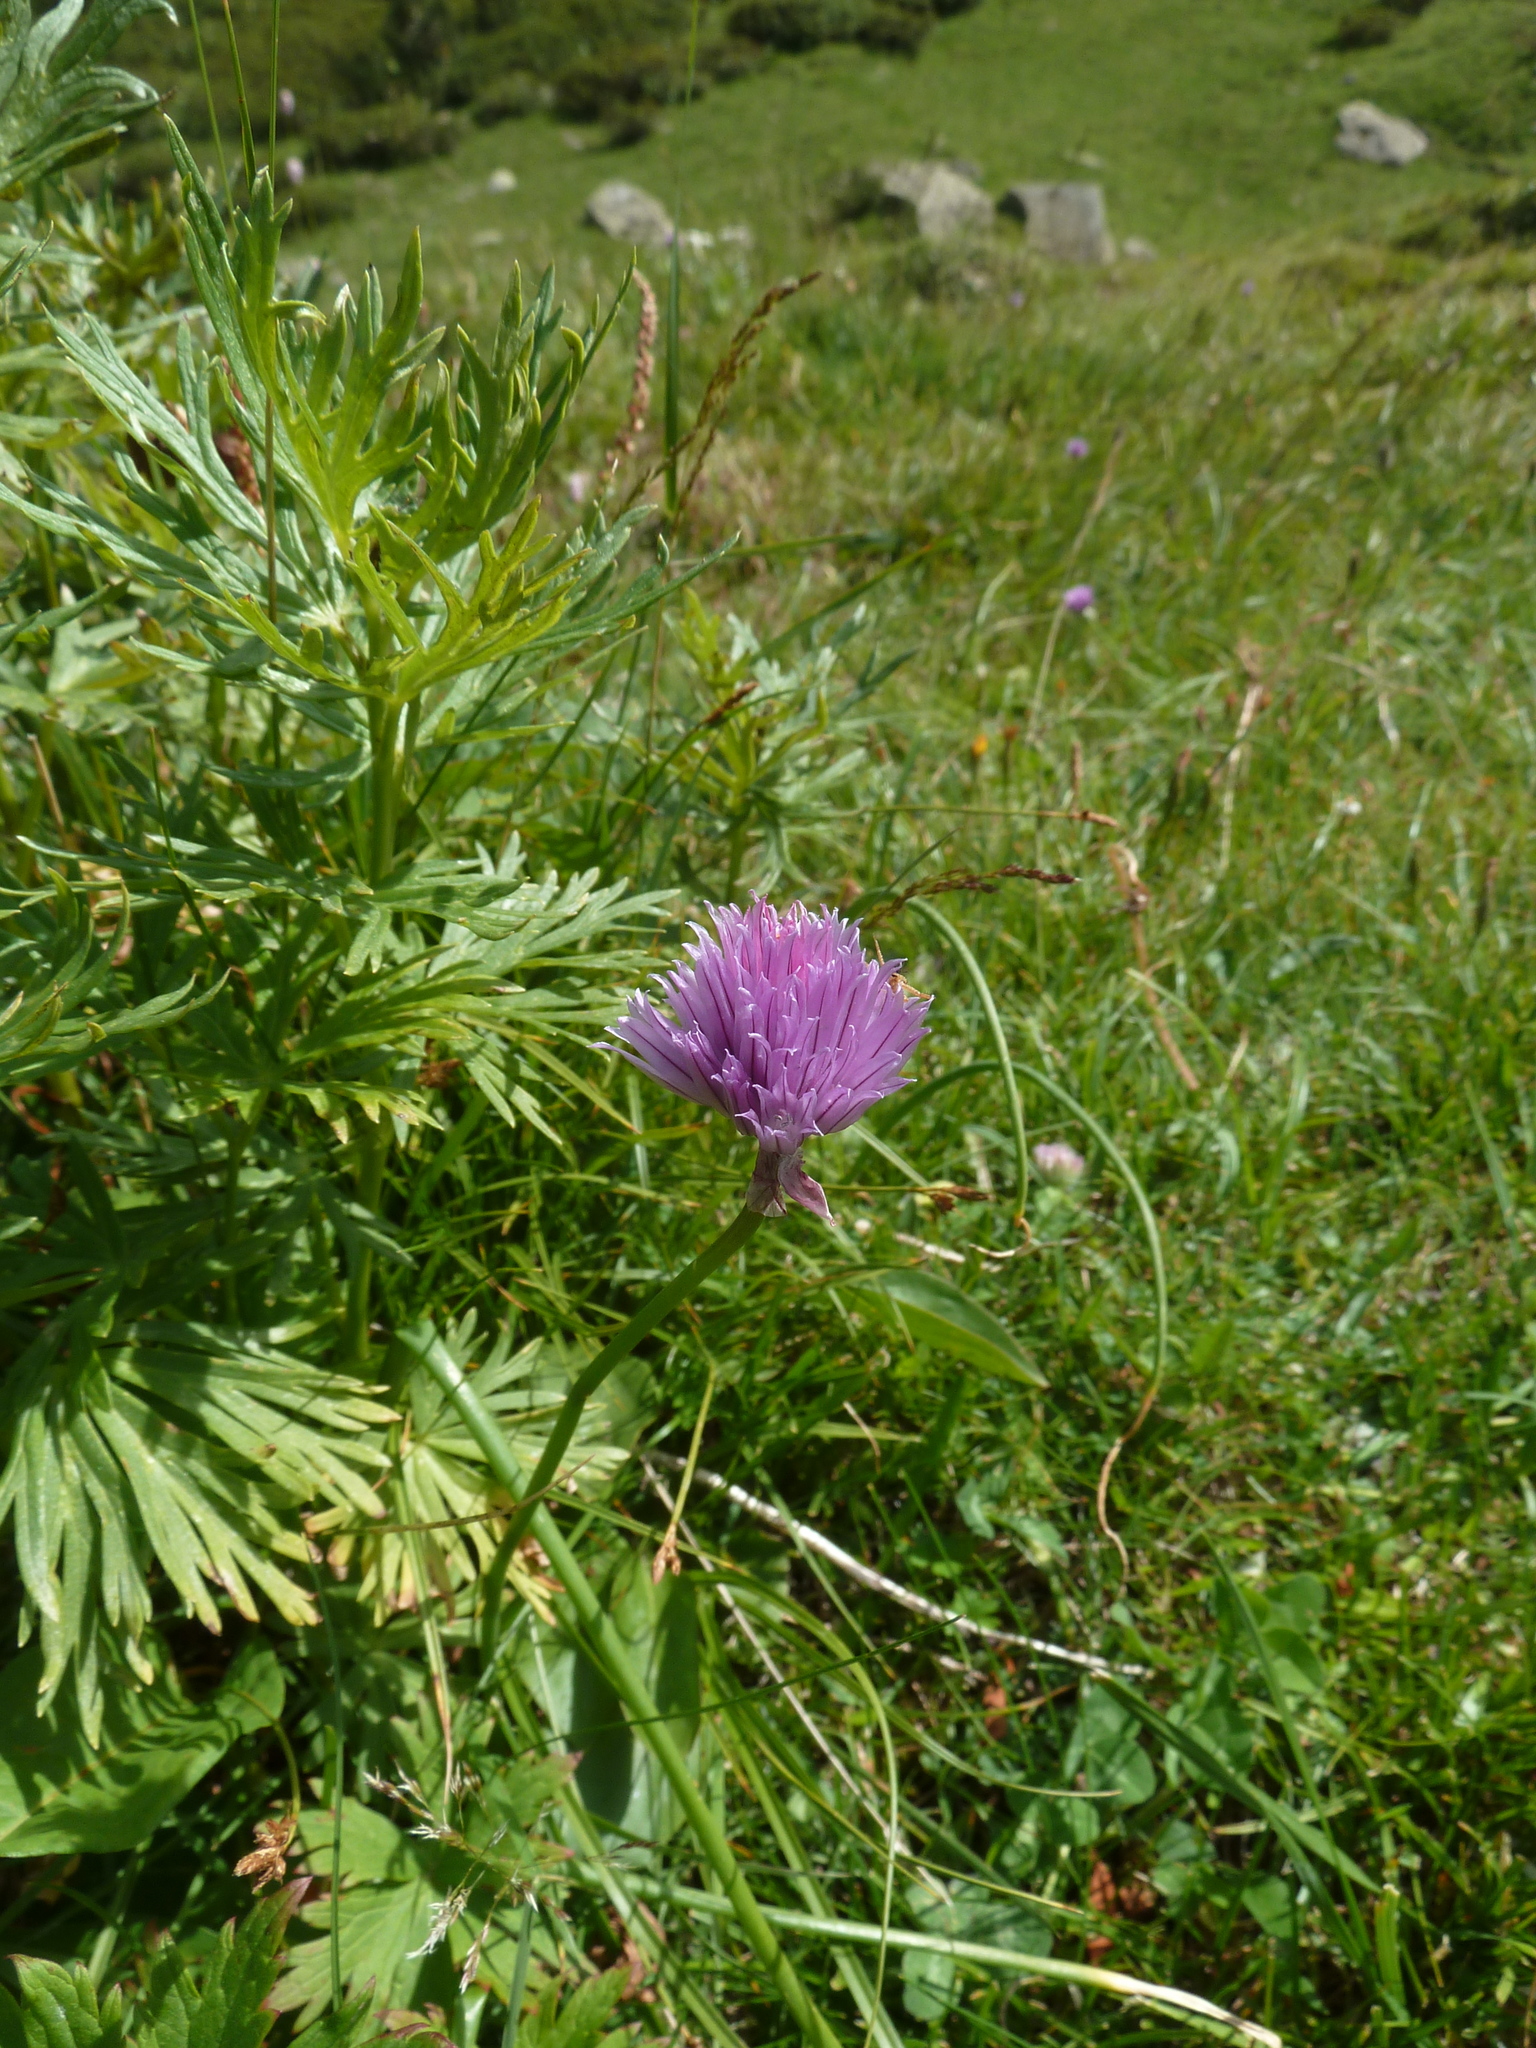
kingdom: Plantae
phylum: Tracheophyta
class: Liliopsida
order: Asparagales
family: Amaryllidaceae
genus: Allium
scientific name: Allium schoenoprasum
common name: Chives
